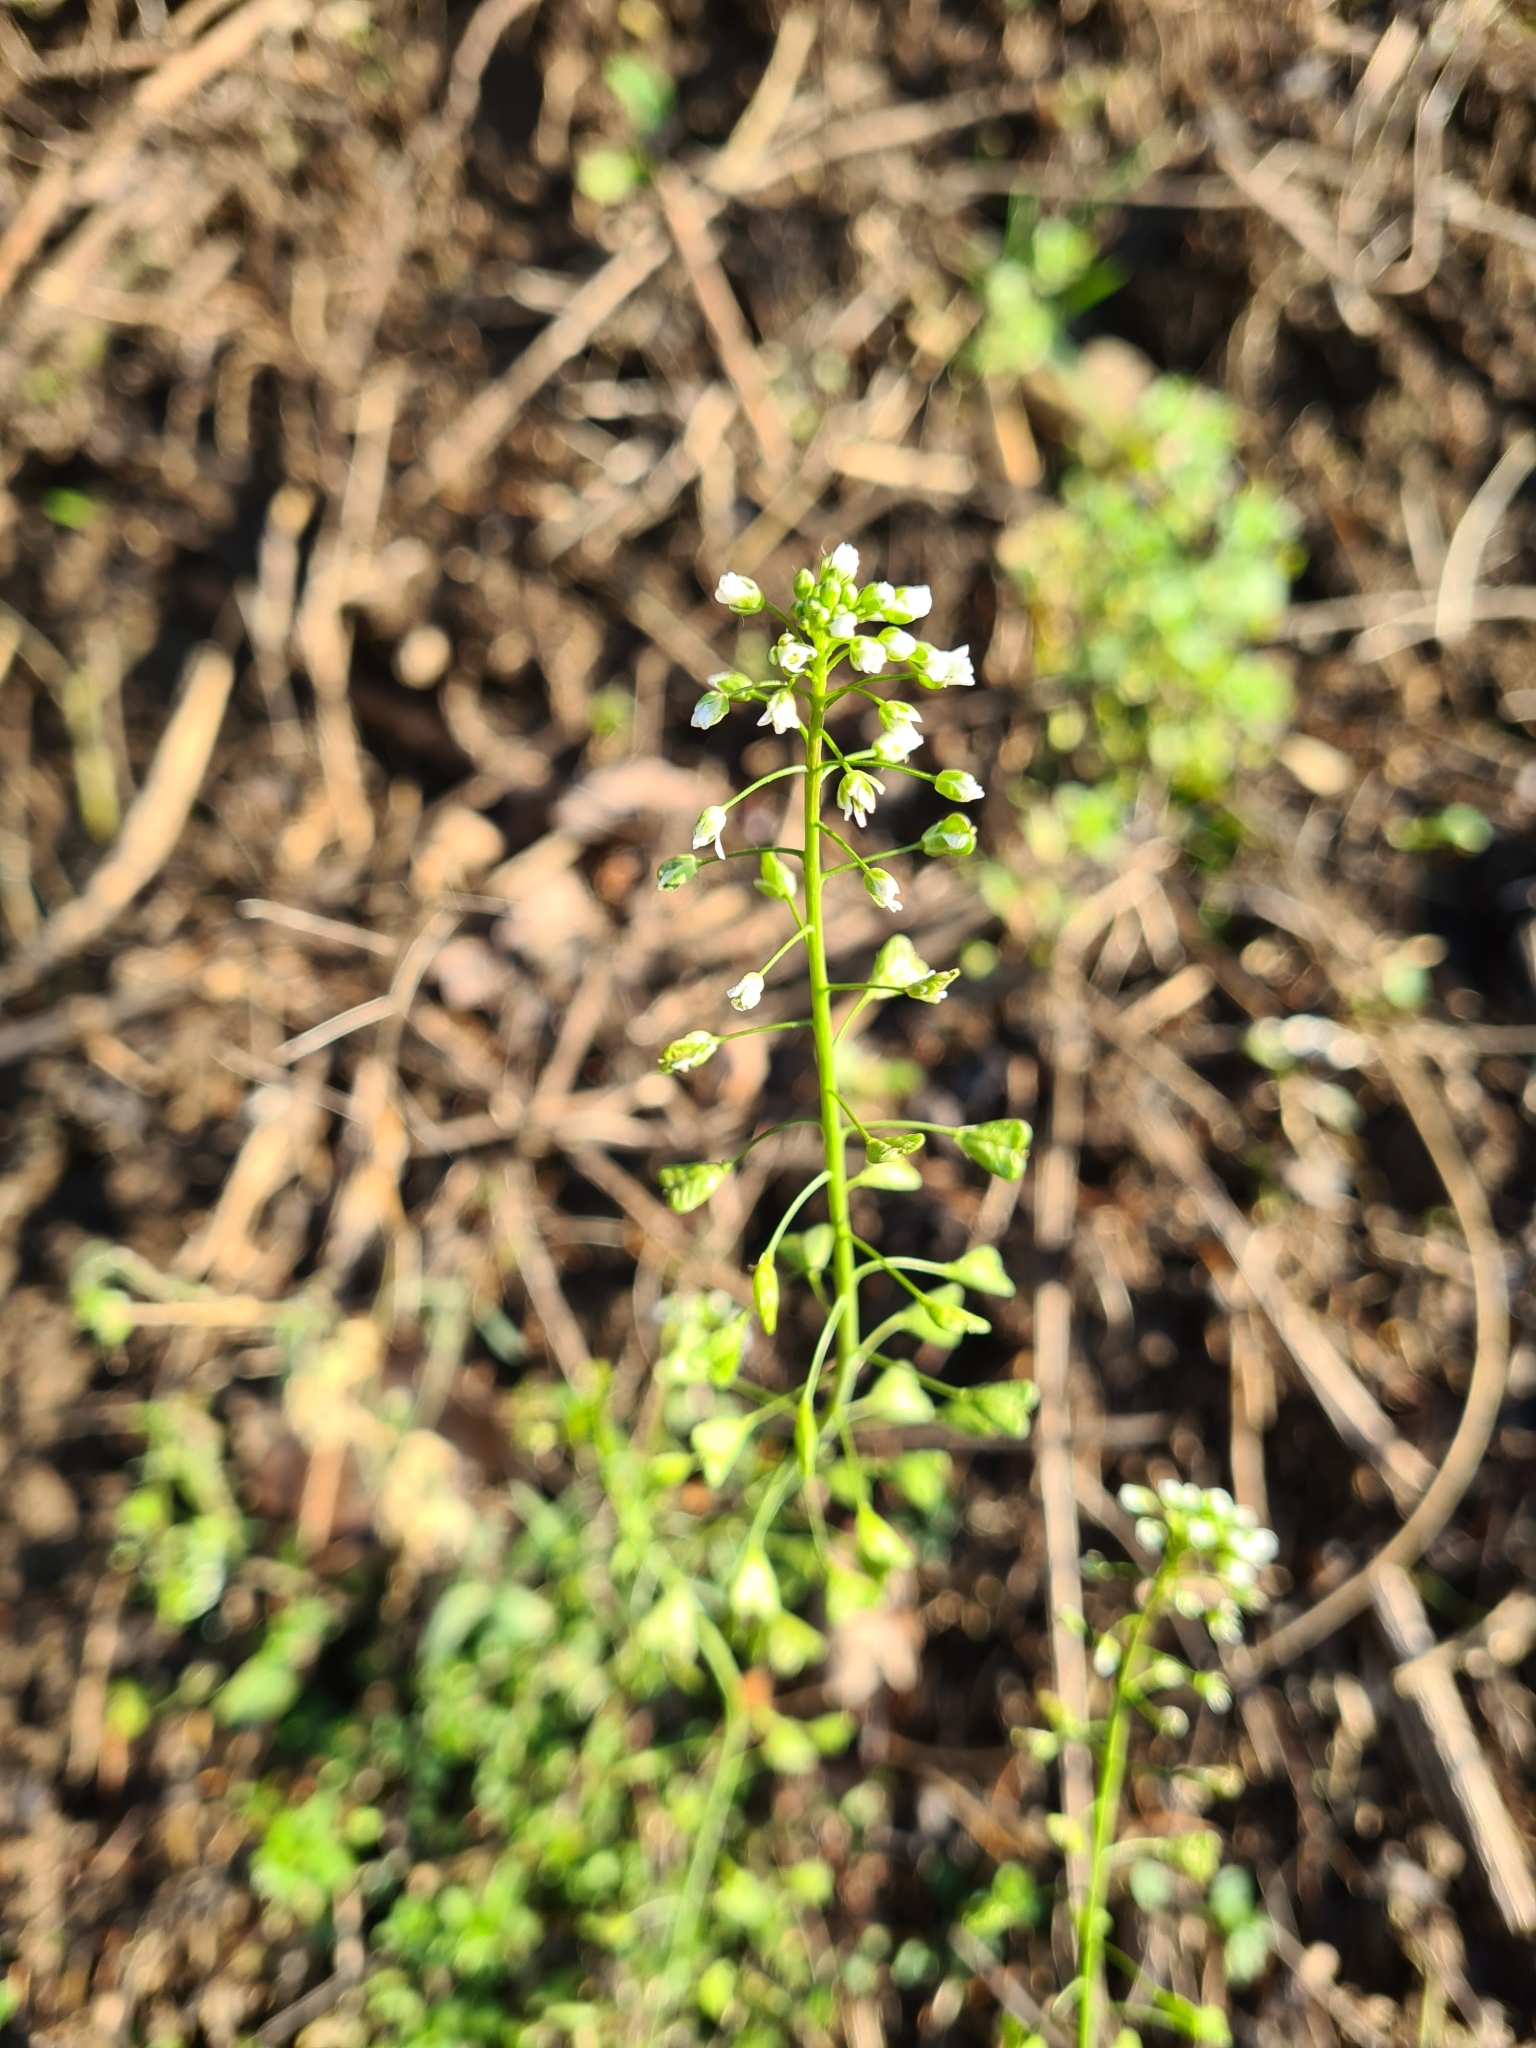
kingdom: Plantae
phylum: Tracheophyta
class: Magnoliopsida
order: Brassicales
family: Brassicaceae
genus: Capsella
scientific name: Capsella bursa-pastoris
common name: Shepherd's purse
